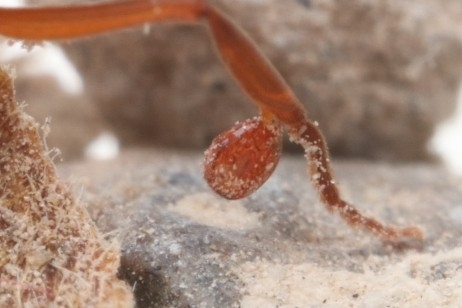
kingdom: Animalia
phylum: Arthropoda
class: Insecta
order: Hymenoptera
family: Formicidae
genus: Odontomachus
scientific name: Odontomachus clarus
